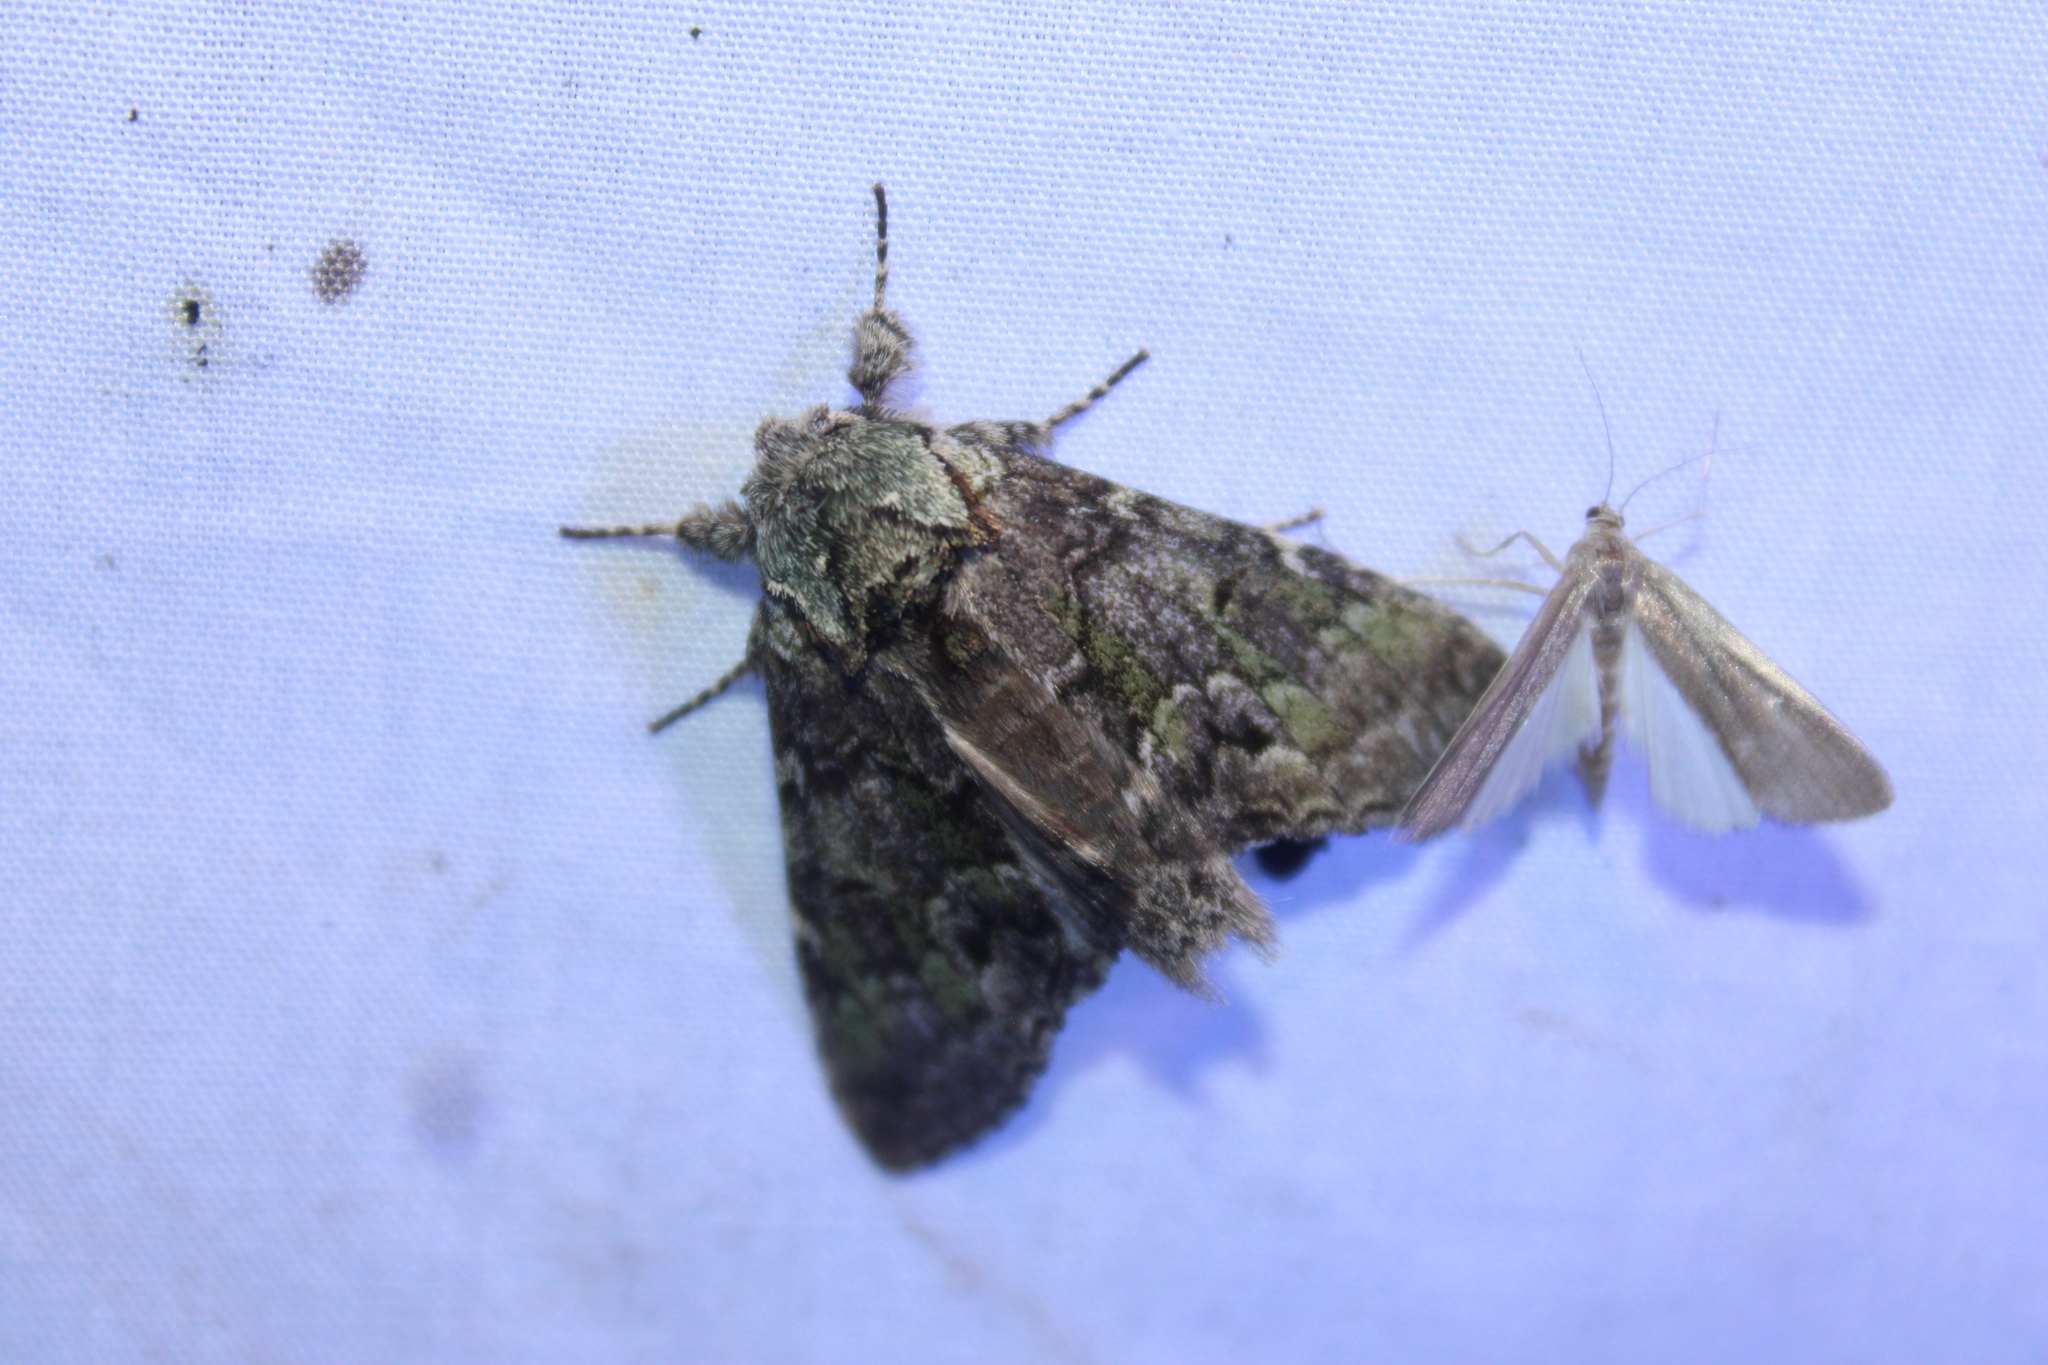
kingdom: Animalia
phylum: Arthropoda
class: Insecta
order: Lepidoptera
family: Notodontidae
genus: Macrurocampa
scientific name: Macrurocampa marthesia
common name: Mottled prominent
